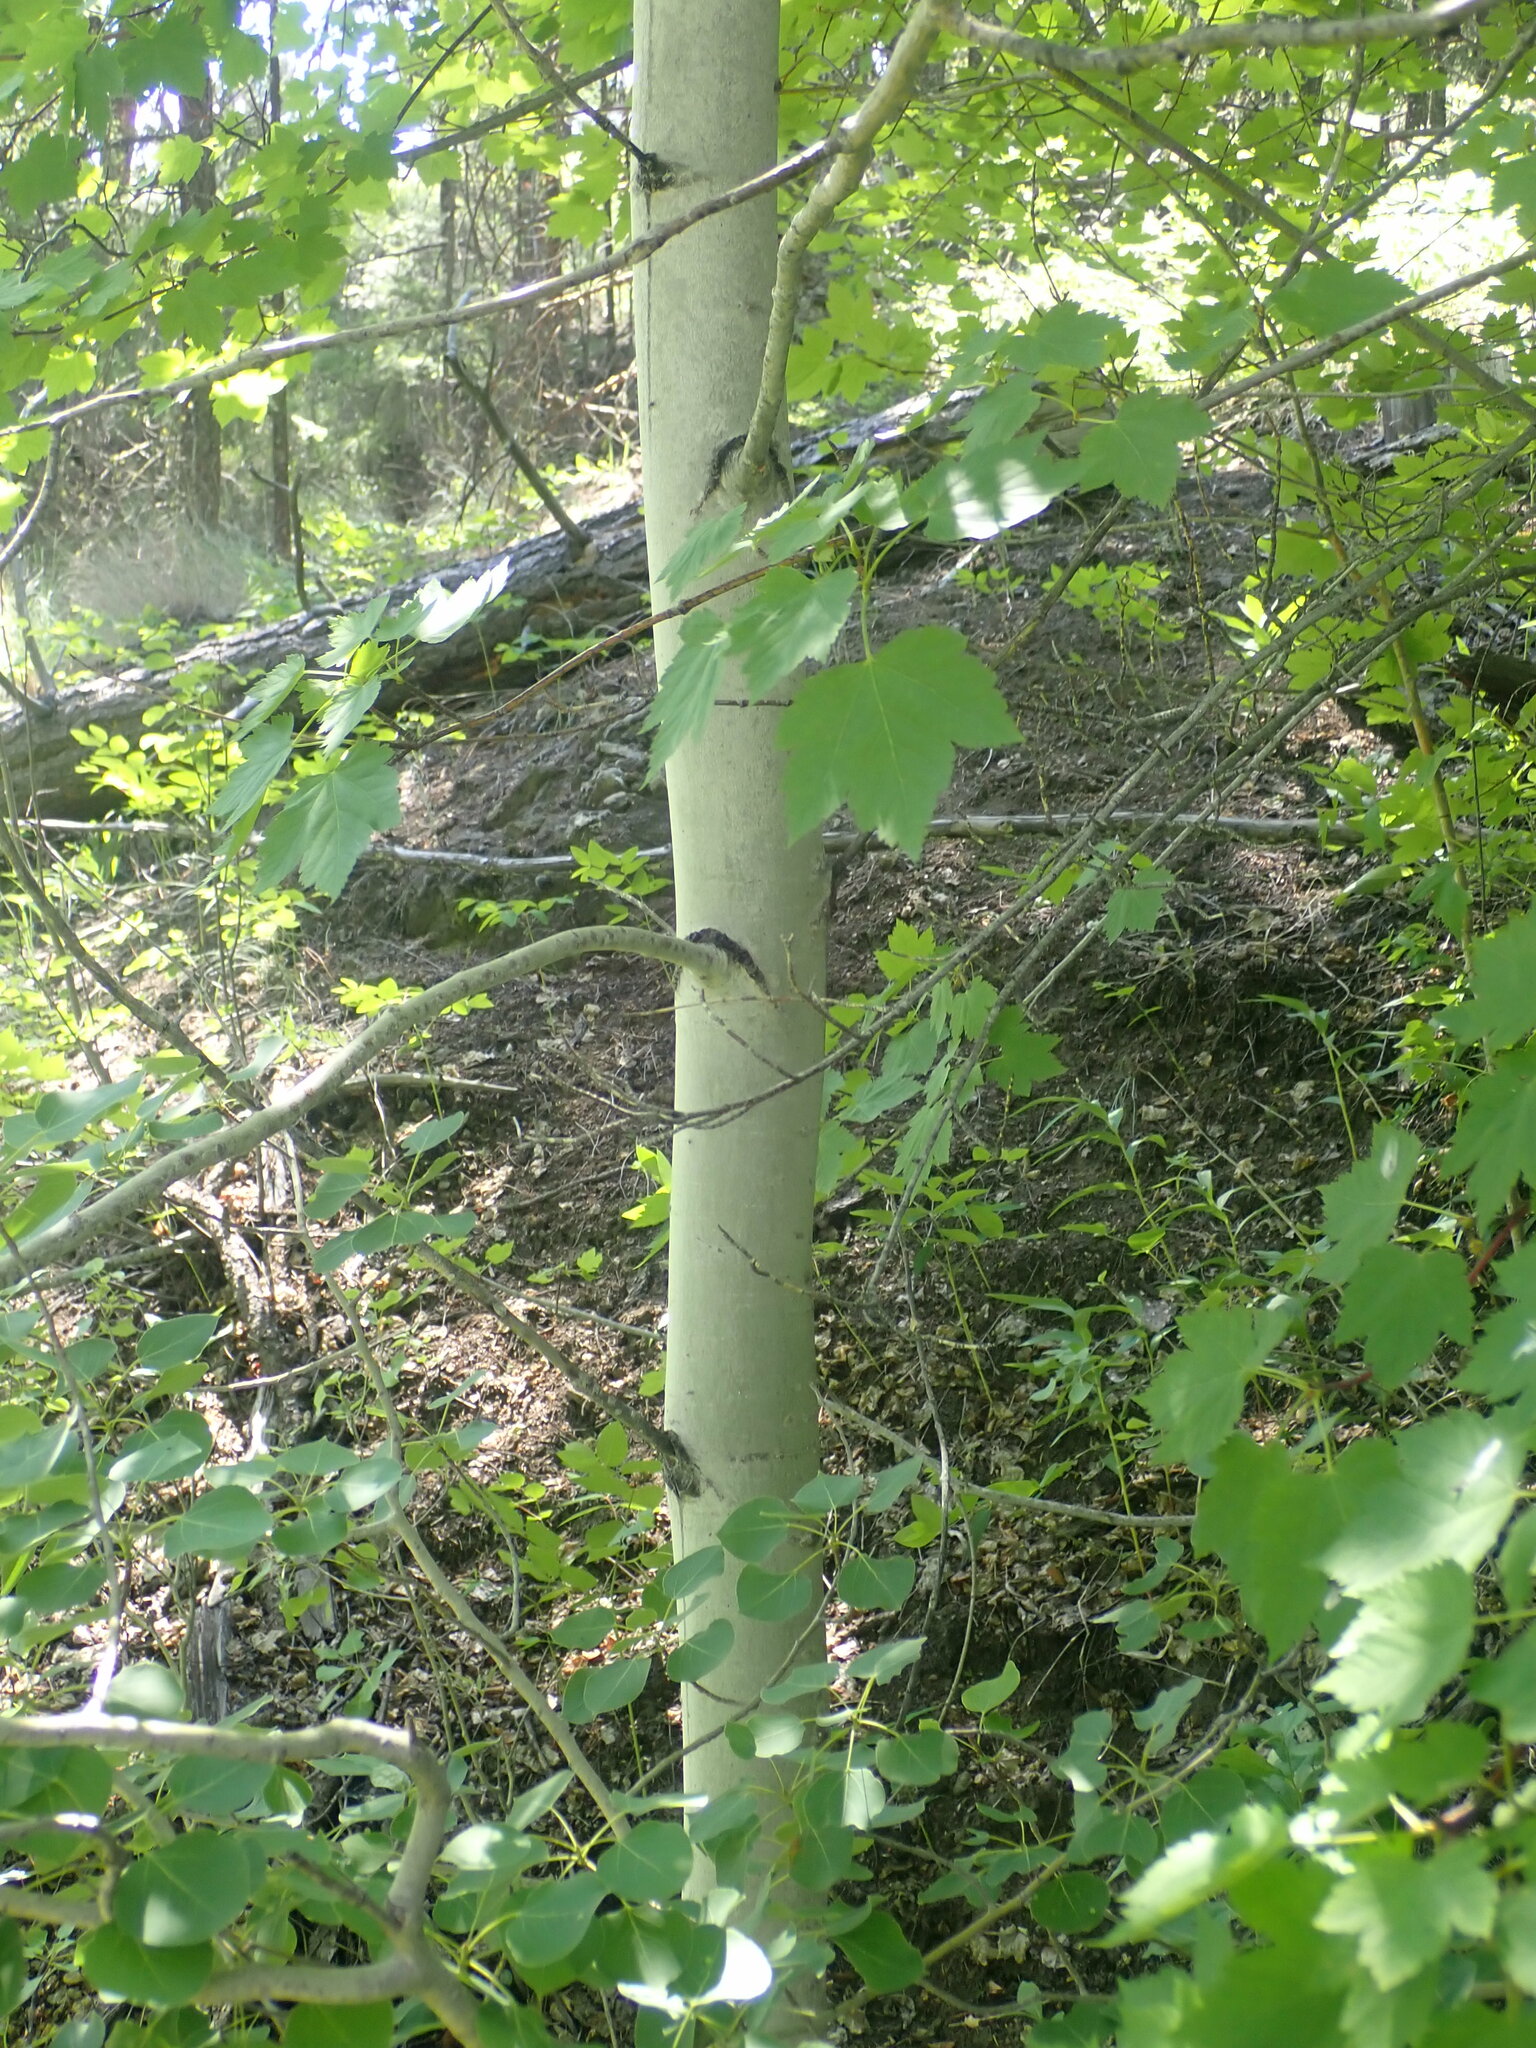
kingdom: Plantae
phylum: Tracheophyta
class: Magnoliopsida
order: Malpighiales
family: Salicaceae
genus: Populus
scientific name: Populus tremuloides
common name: Quaking aspen
